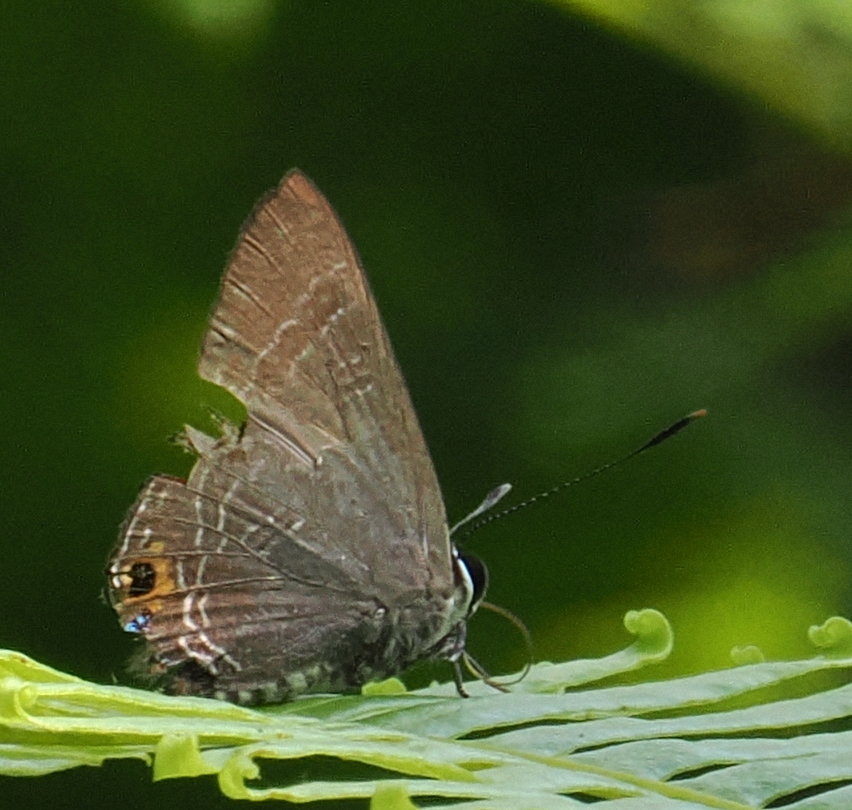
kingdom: Animalia
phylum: Arthropoda
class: Insecta
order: Lepidoptera
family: Lycaenidae
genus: Deudorix
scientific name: Deudorix epijarbas
